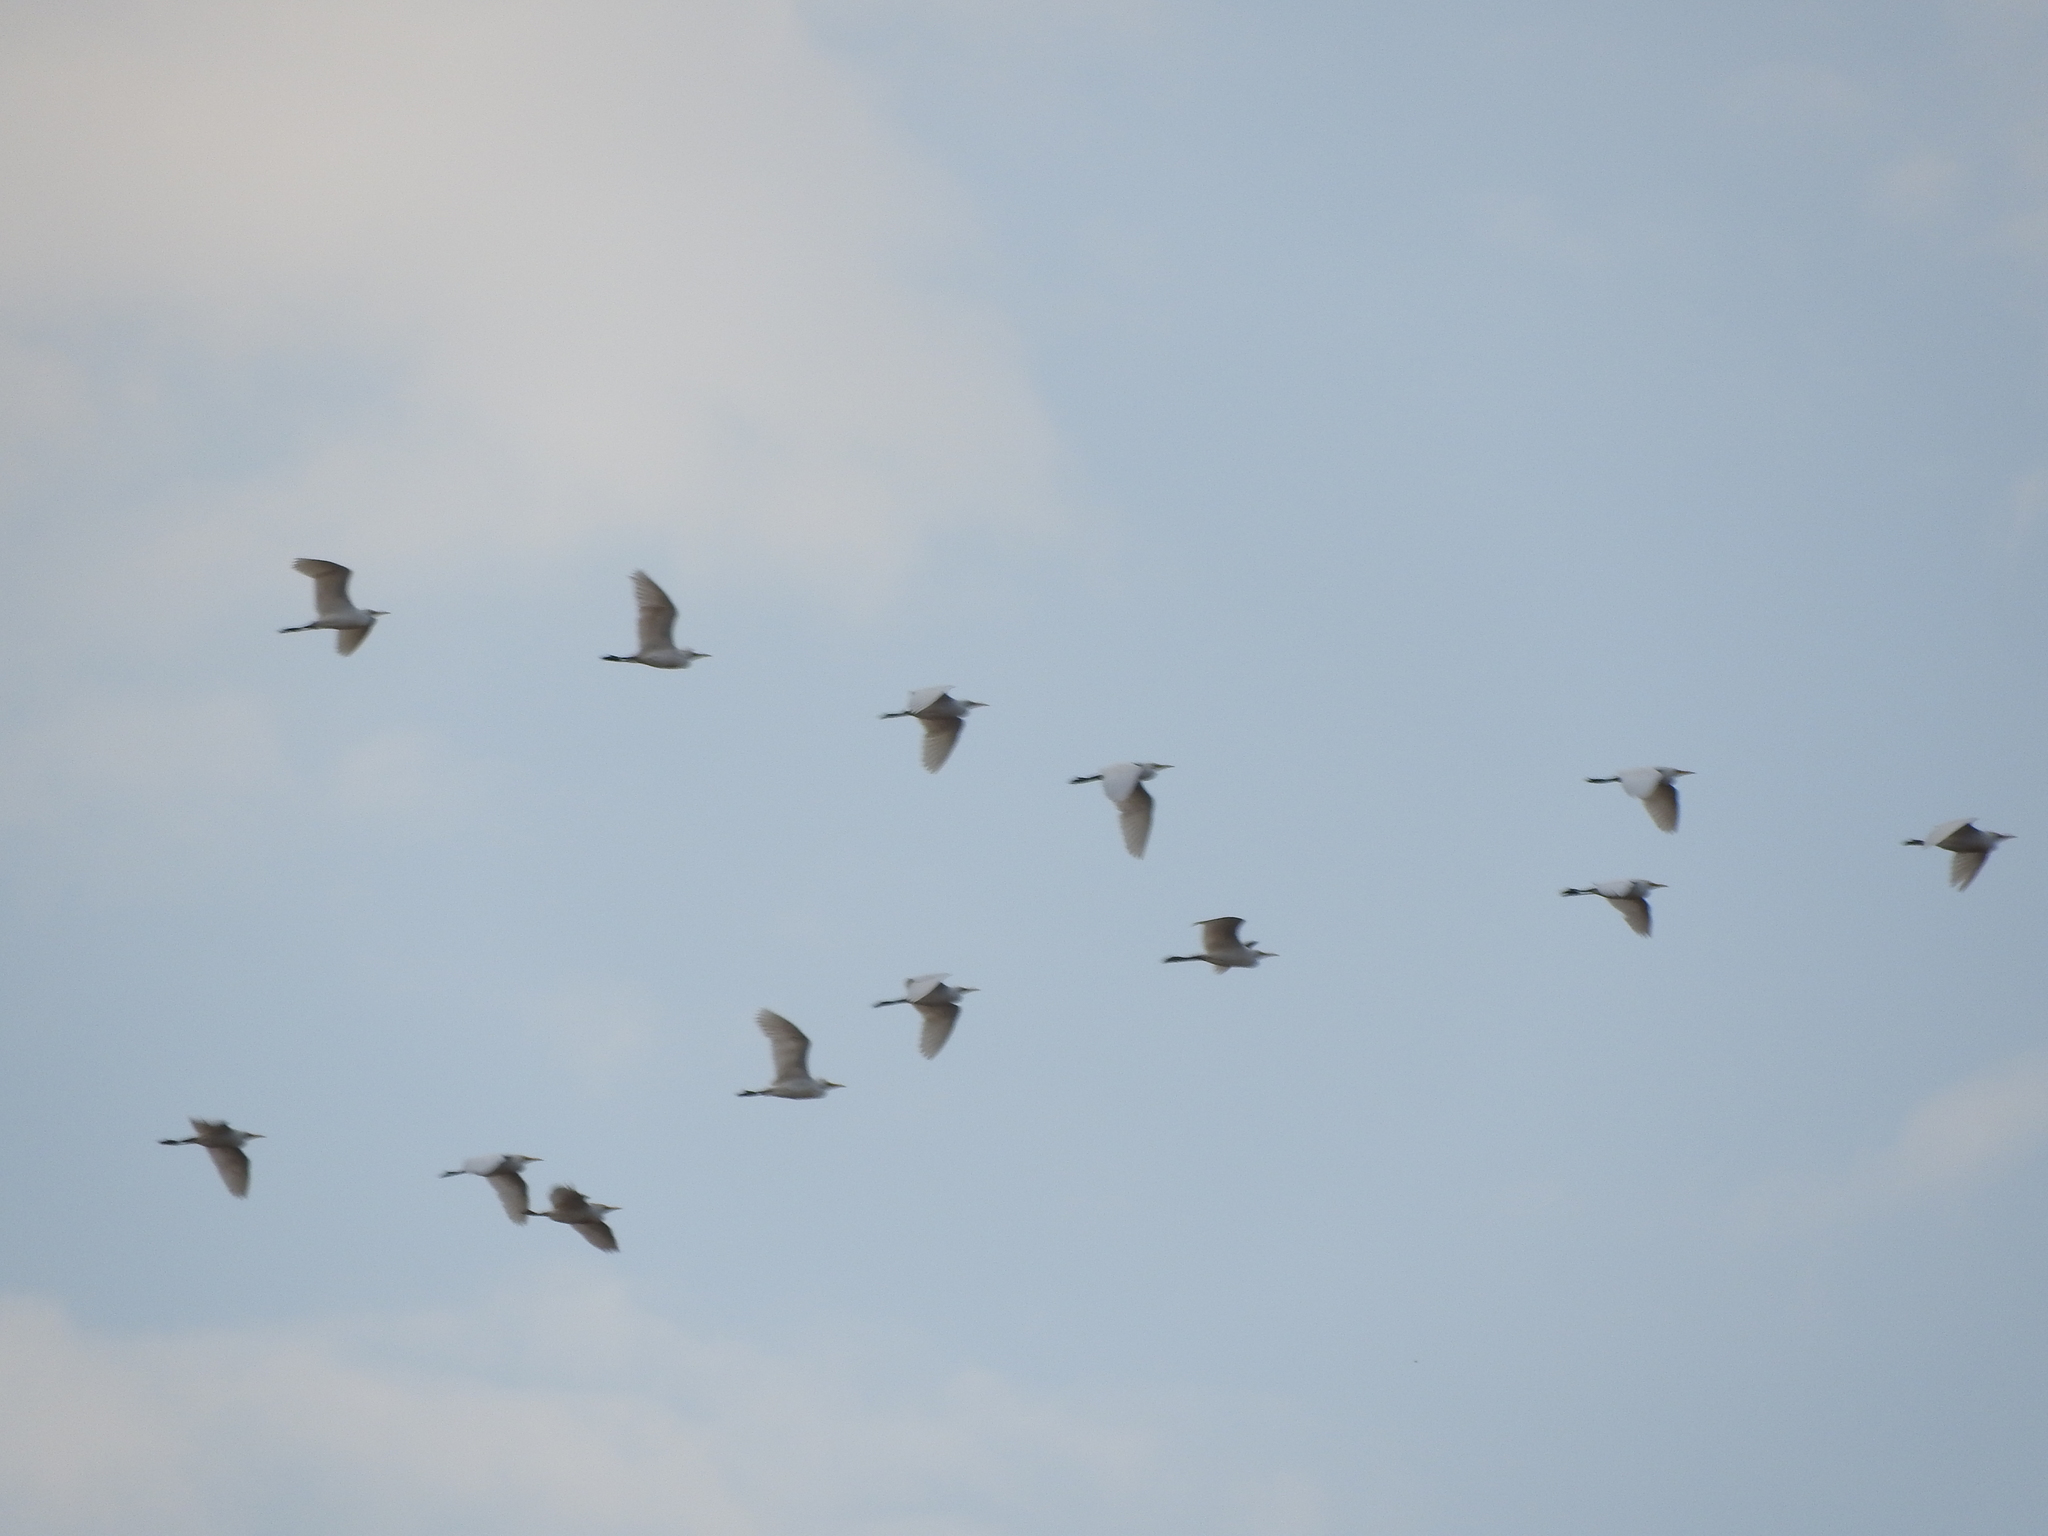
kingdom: Animalia
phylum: Chordata
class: Aves
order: Pelecaniformes
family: Ardeidae
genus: Bubulcus
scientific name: Bubulcus ibis
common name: Cattle egret
